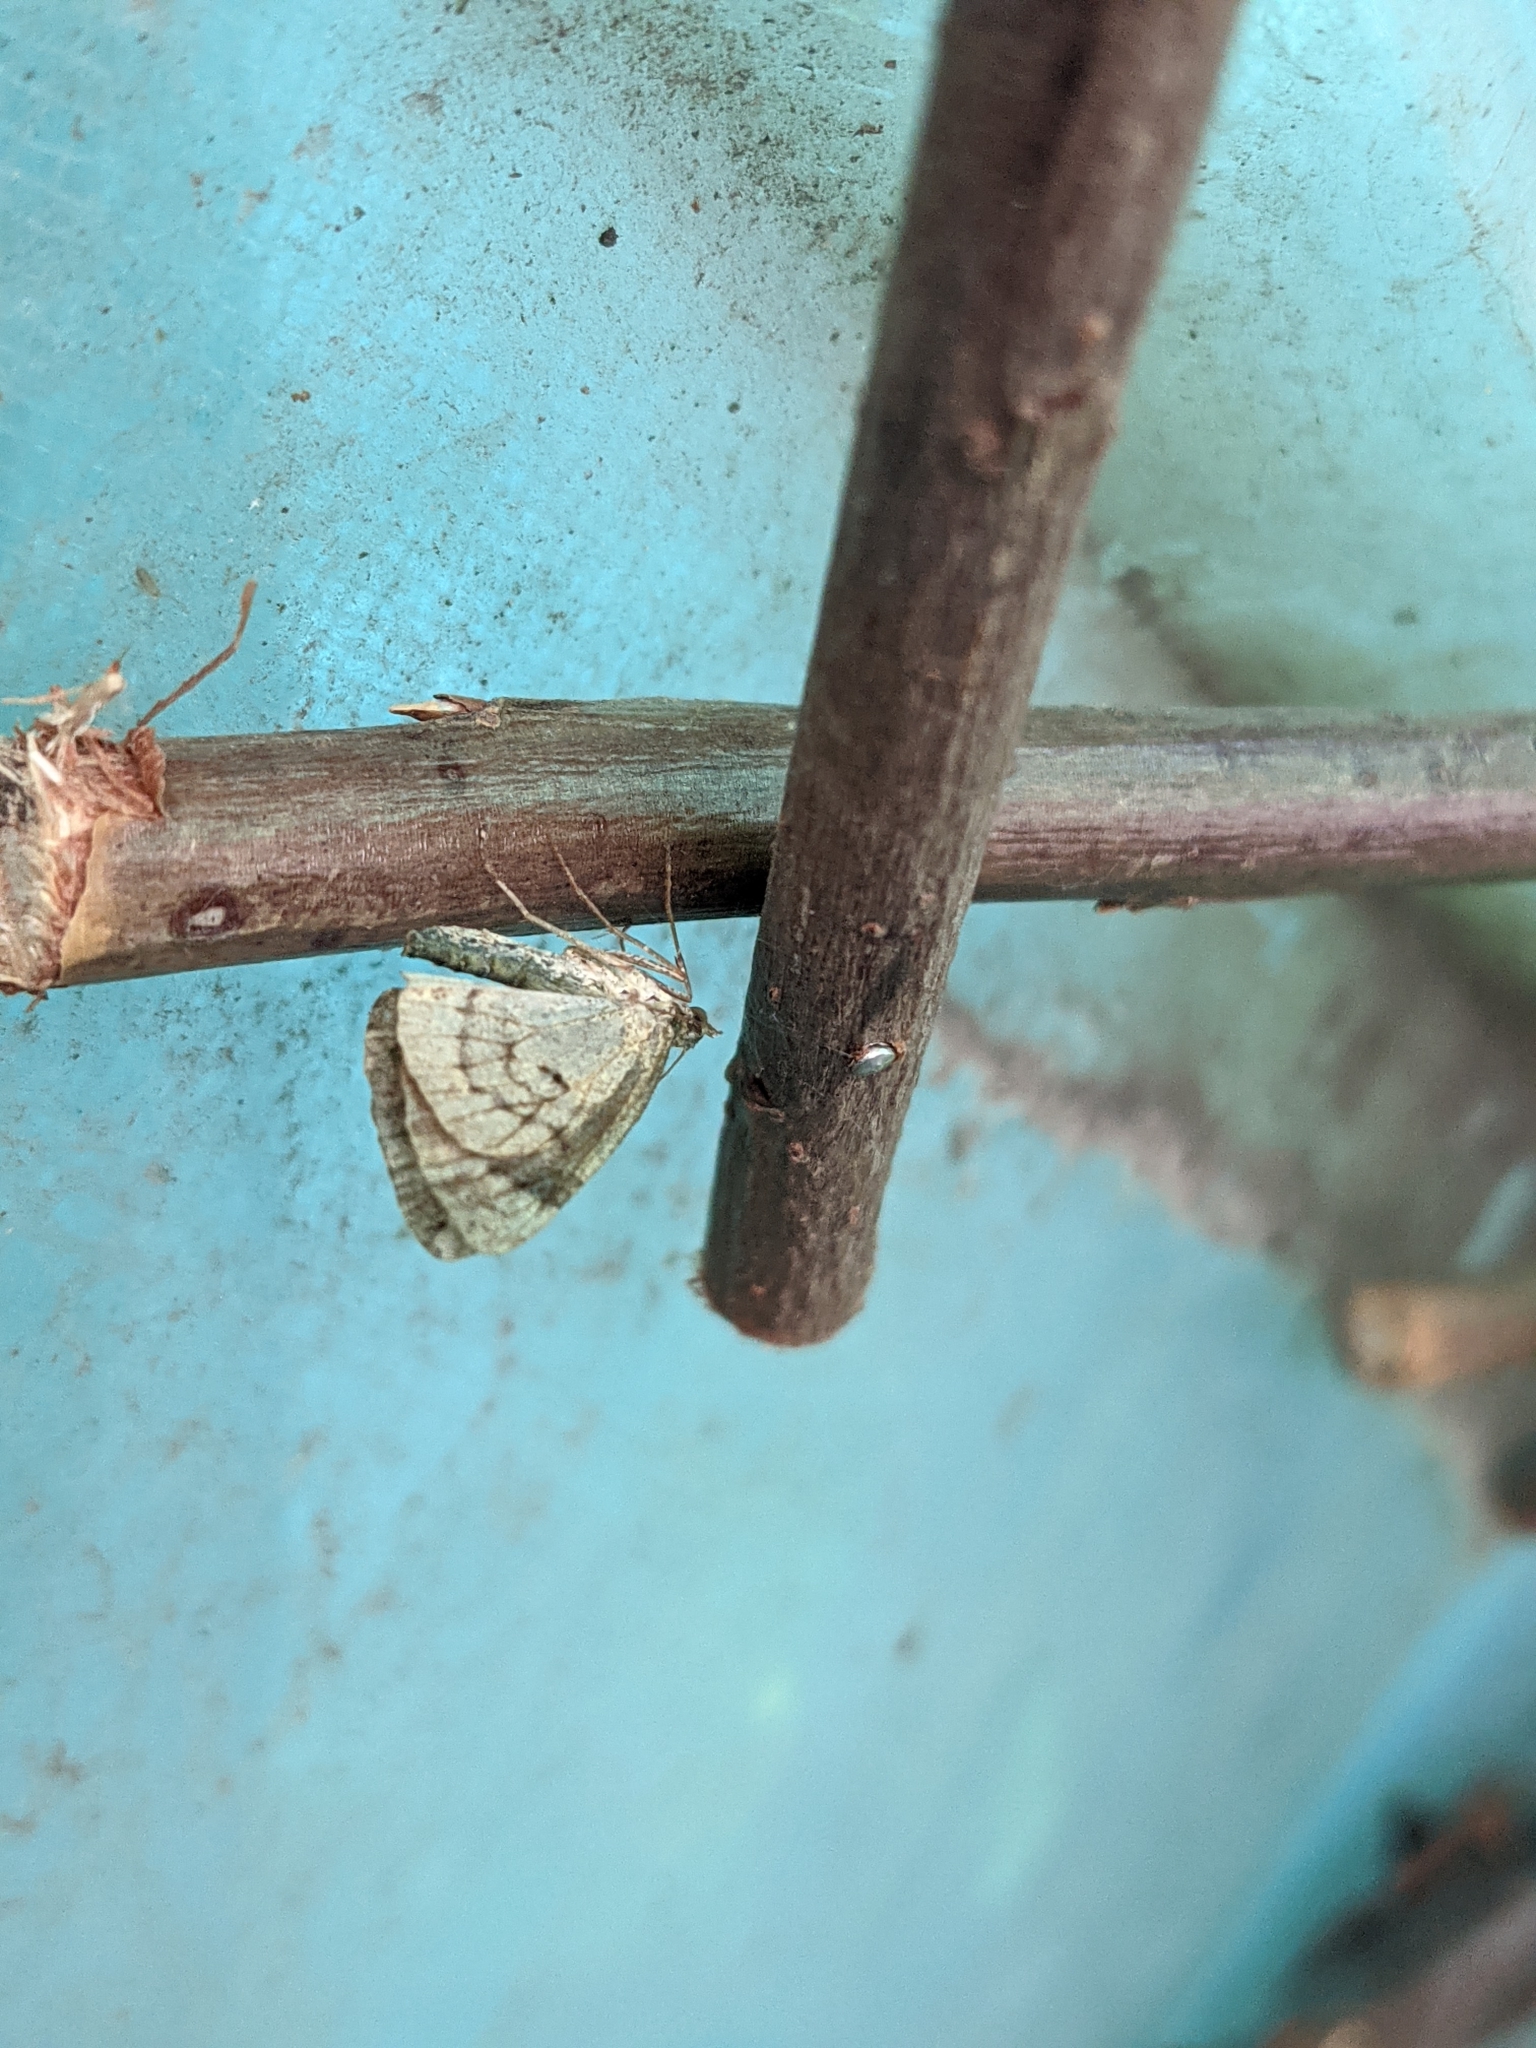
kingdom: Animalia
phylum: Arthropoda
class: Insecta
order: Lepidoptera
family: Geometridae
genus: Chloroclysta
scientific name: Chloroclysta siterata
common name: Red-green carpet
